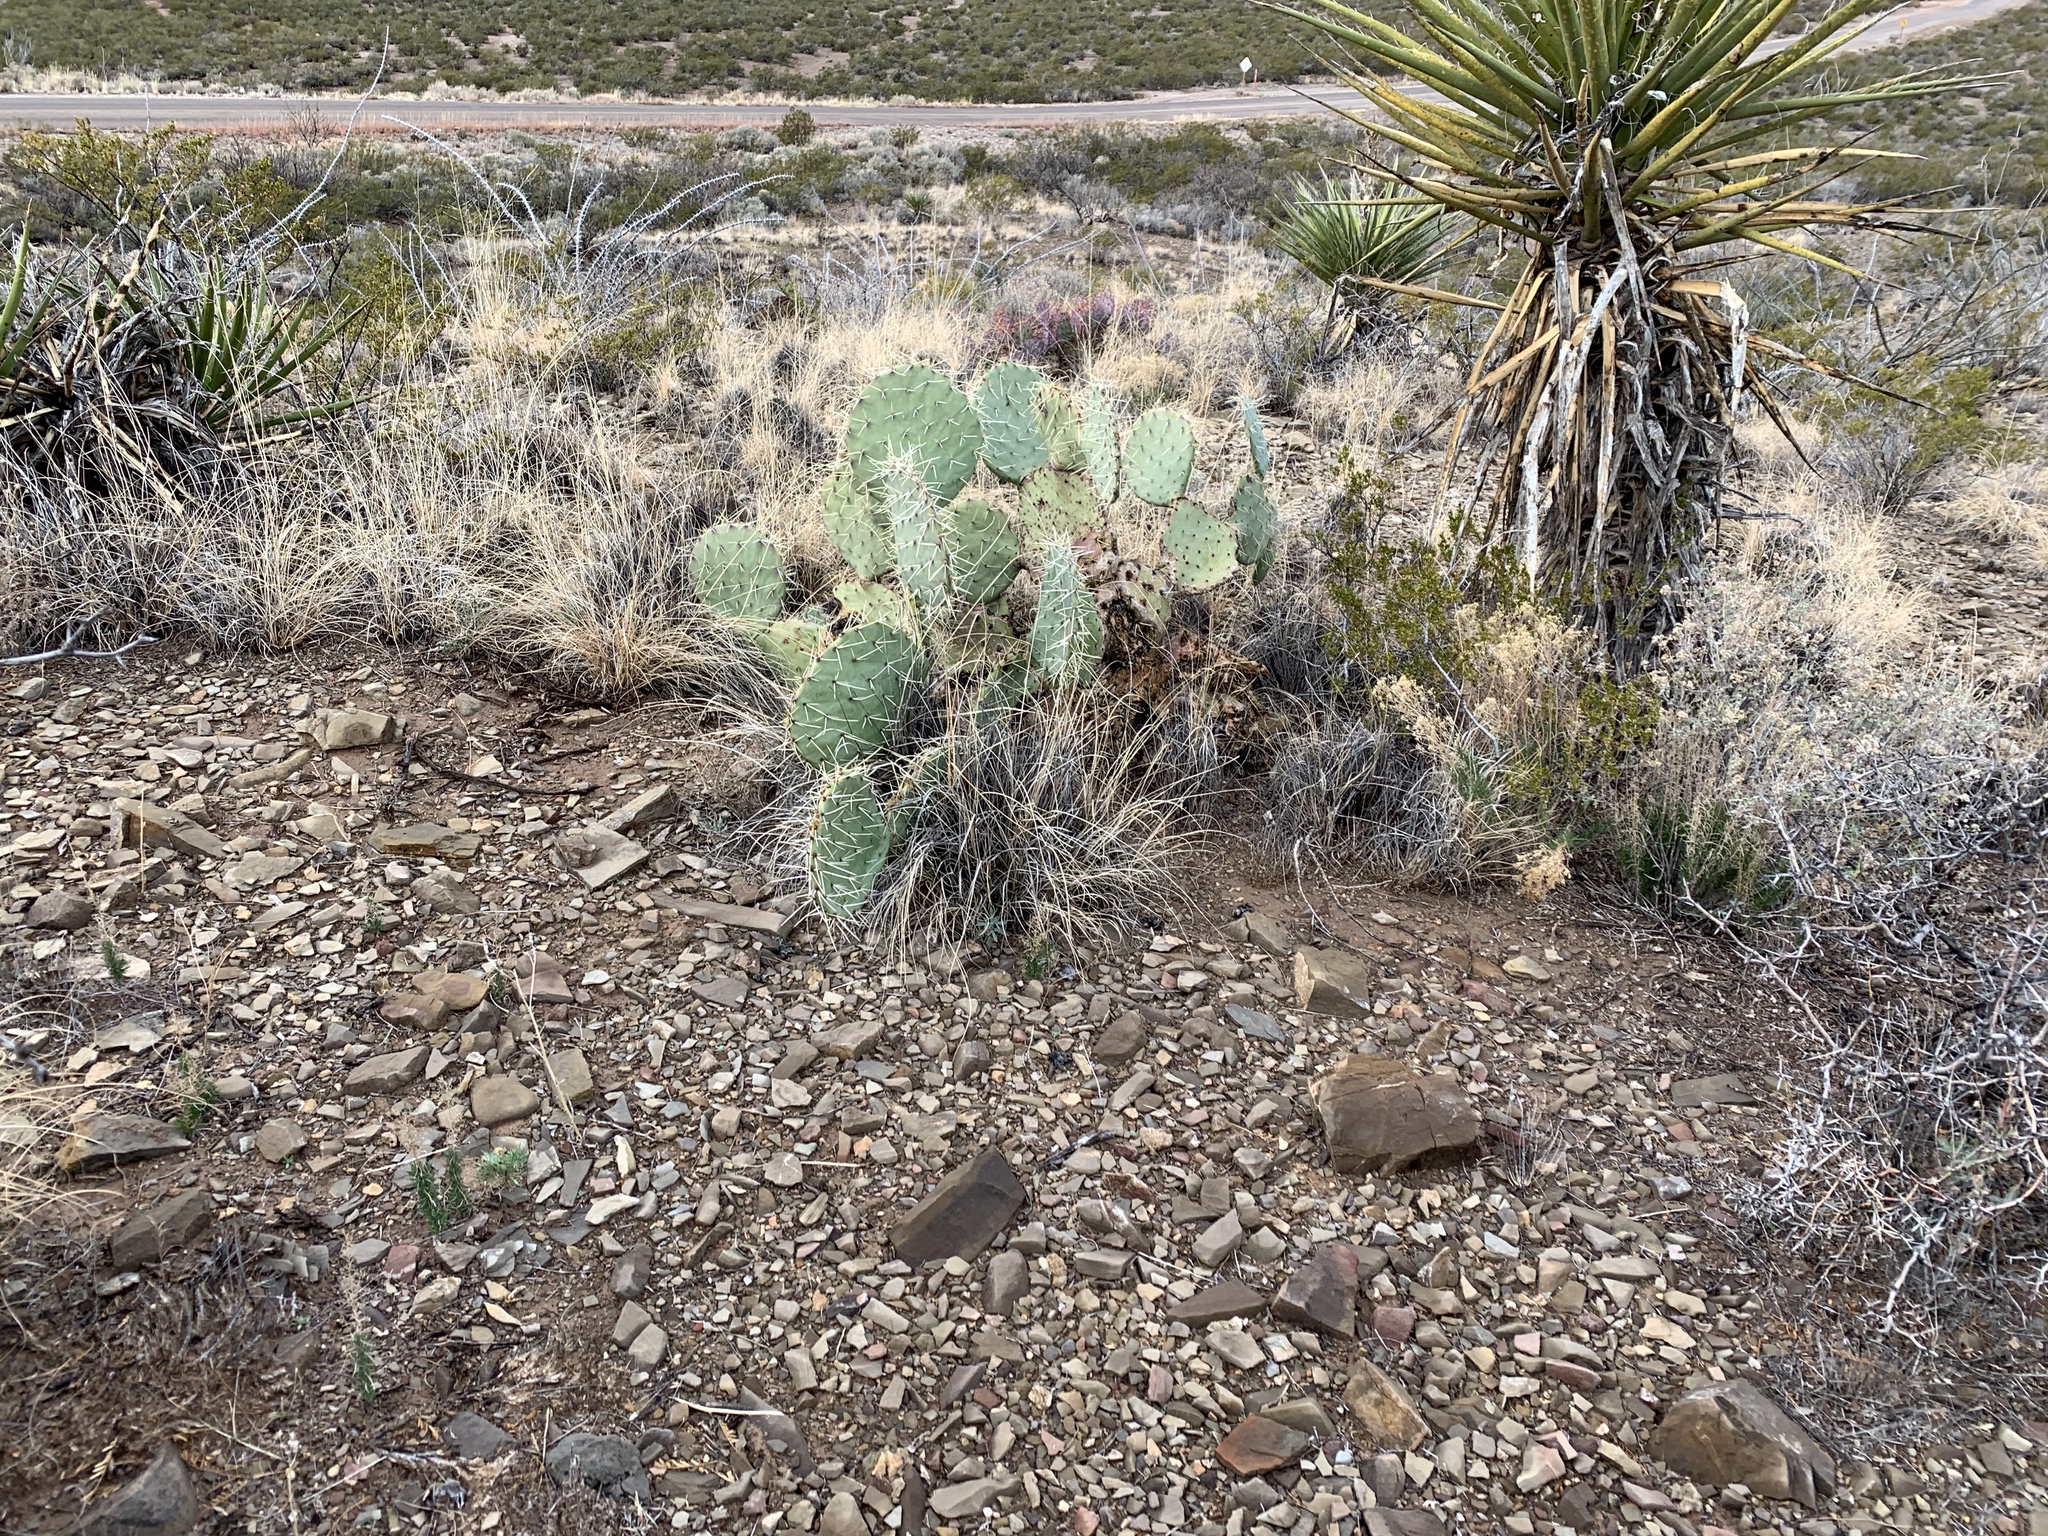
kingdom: Plantae
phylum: Tracheophyta
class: Magnoliopsida
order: Caryophyllales
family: Cactaceae
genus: Opuntia
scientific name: Opuntia engelmannii
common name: Cactus-apple
